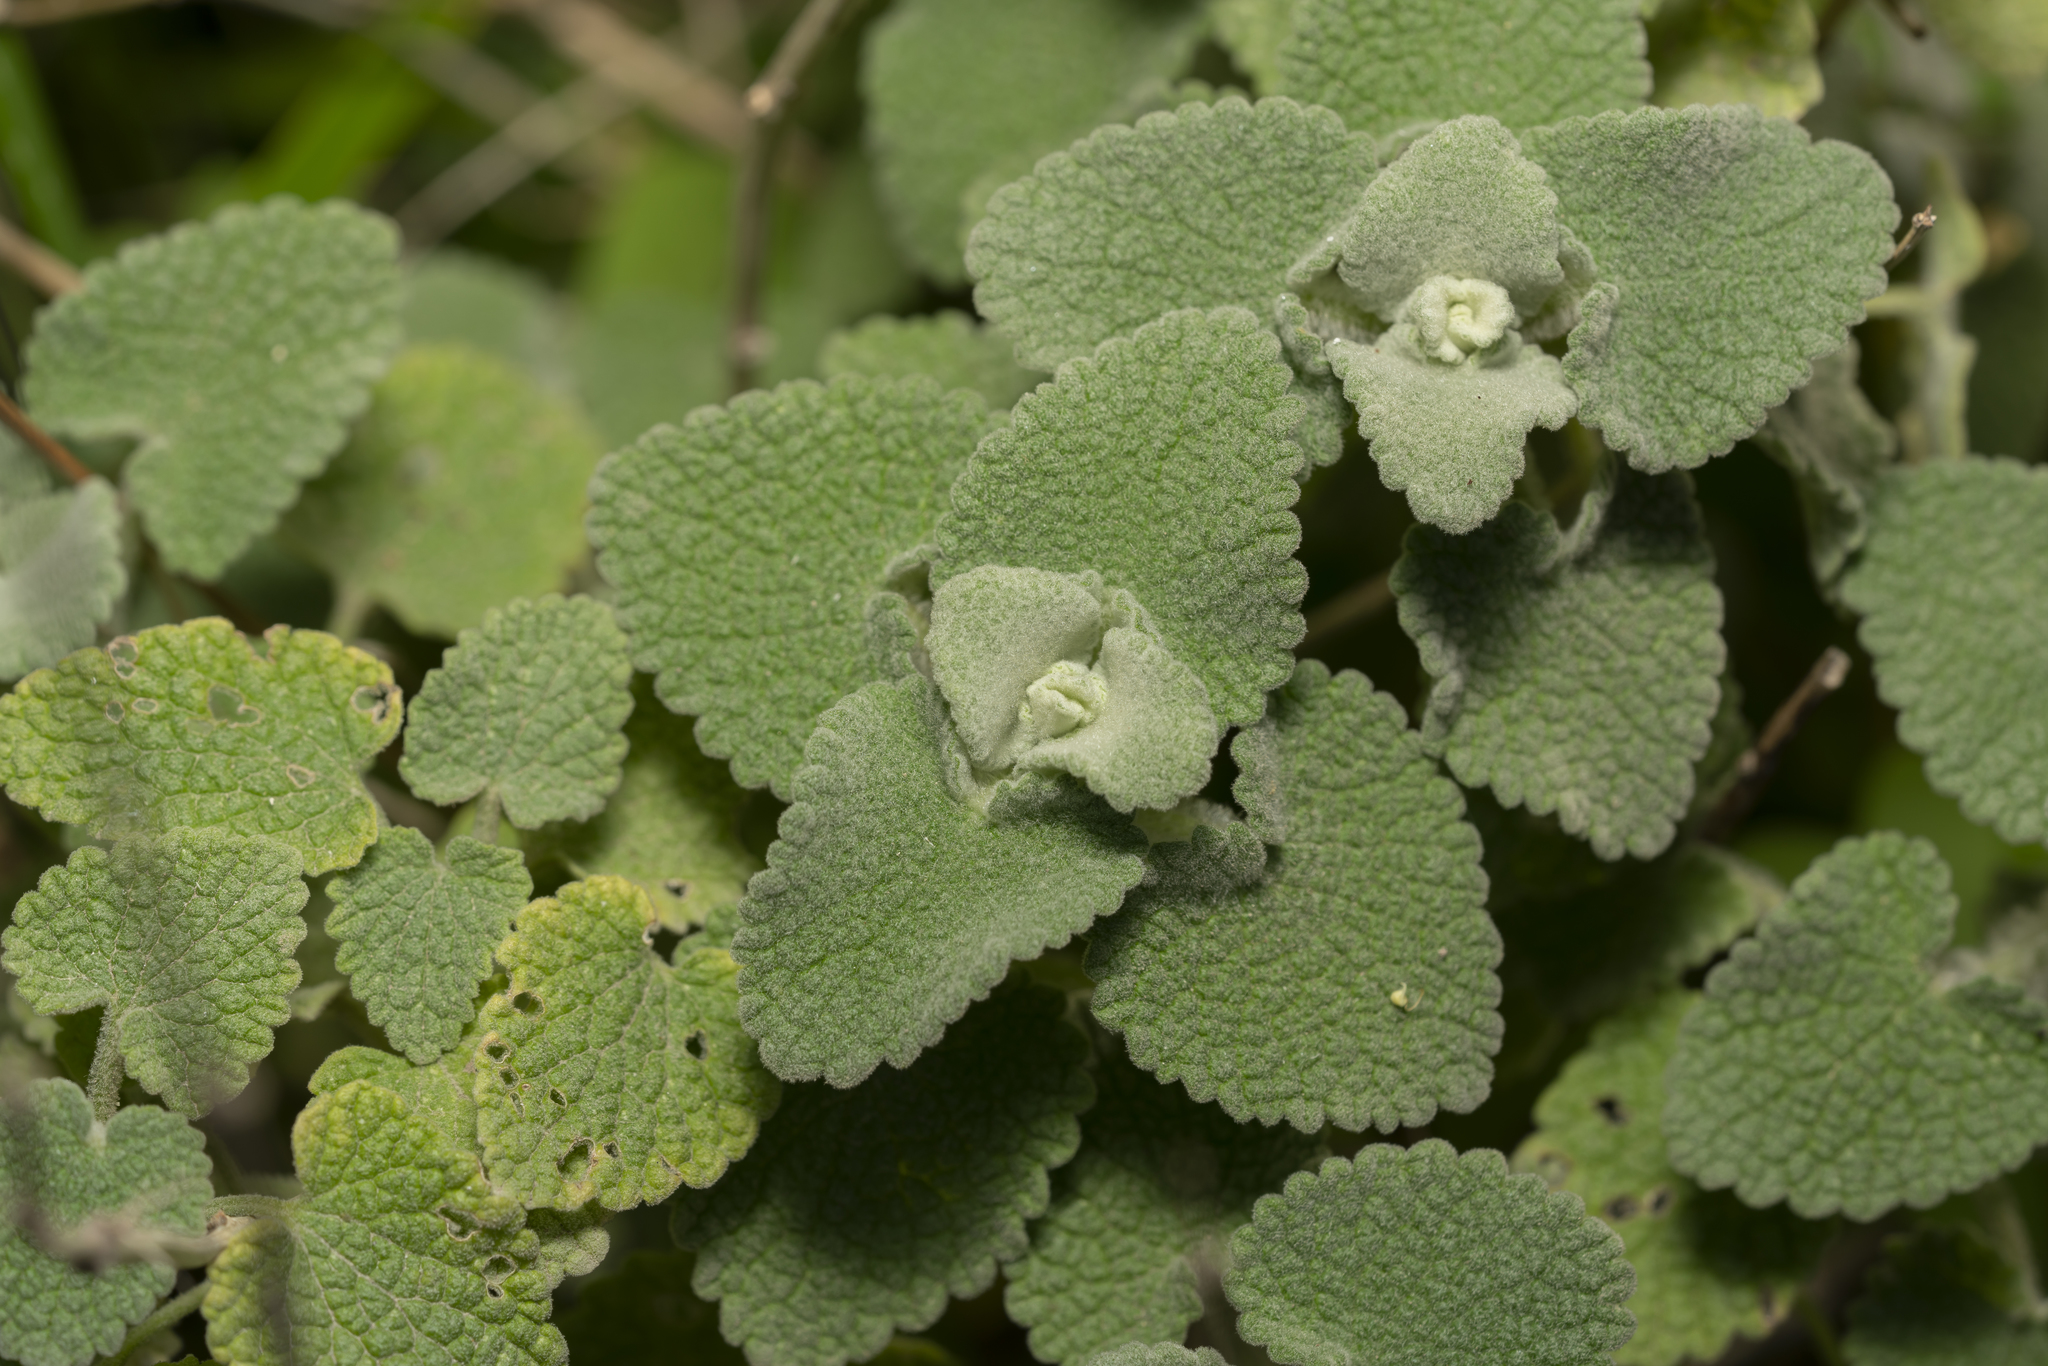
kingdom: Plantae
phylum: Tracheophyta
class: Magnoliopsida
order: Lamiales
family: Lamiaceae
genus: Pseudodictamnus
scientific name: Pseudodictamnus acetabulosus
